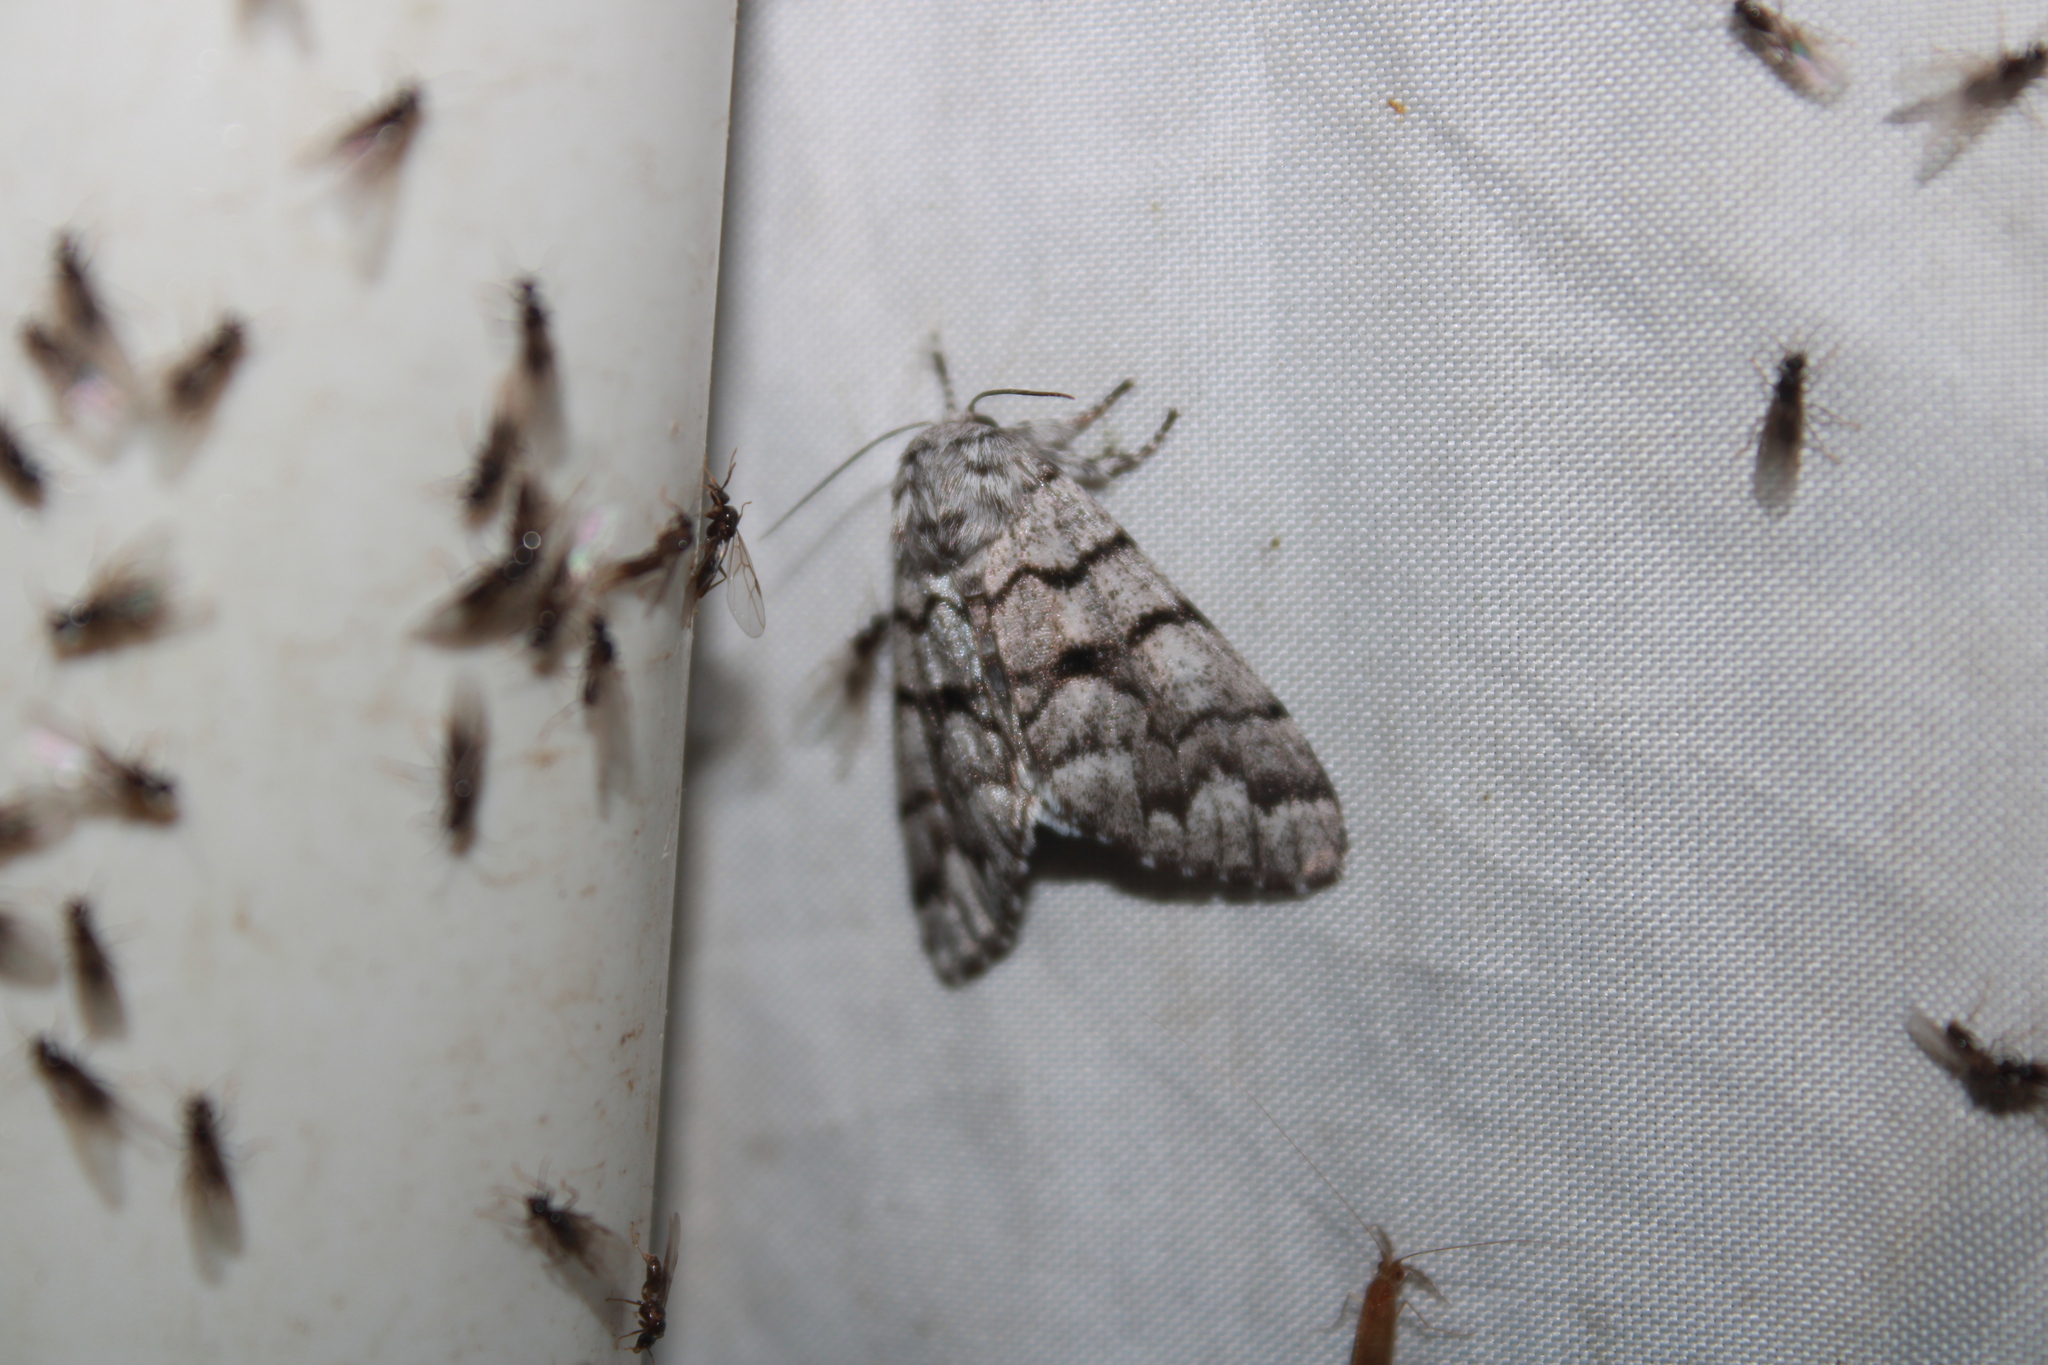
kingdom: Animalia
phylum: Arthropoda
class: Insecta
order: Lepidoptera
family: Noctuidae
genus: Panthea
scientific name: Panthea furcilla
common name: Eastern panthea moth
